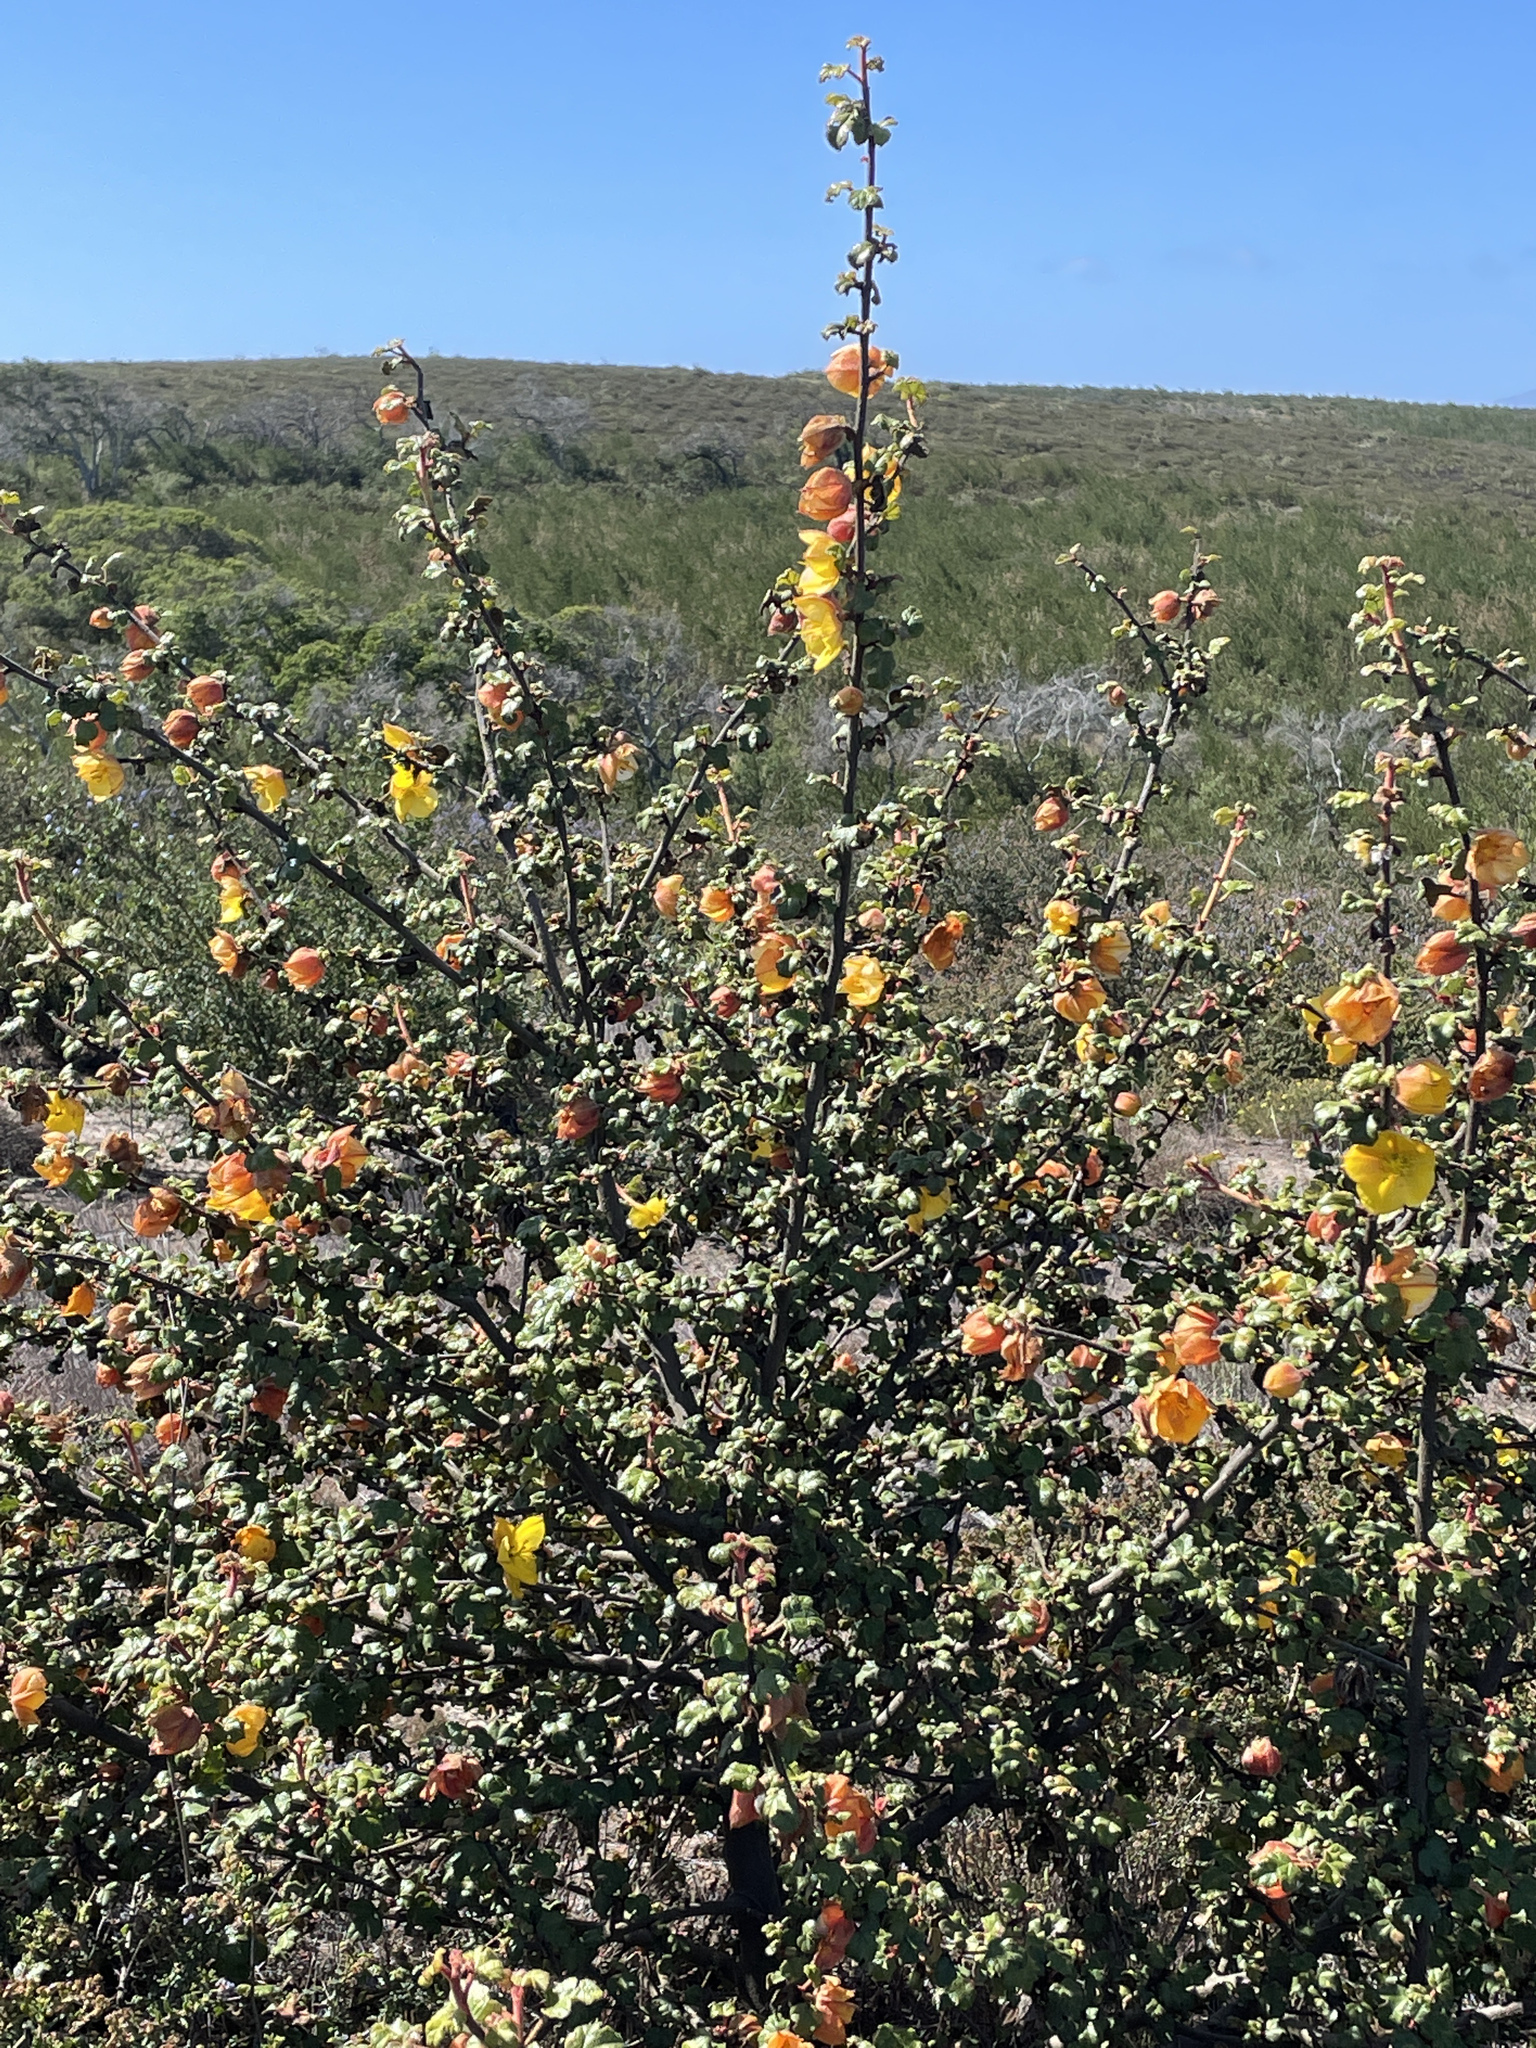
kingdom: Plantae
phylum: Tracheophyta
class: Magnoliopsida
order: Malvales
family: Malvaceae
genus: Fremontodendron
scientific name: Fremontodendron californicum
